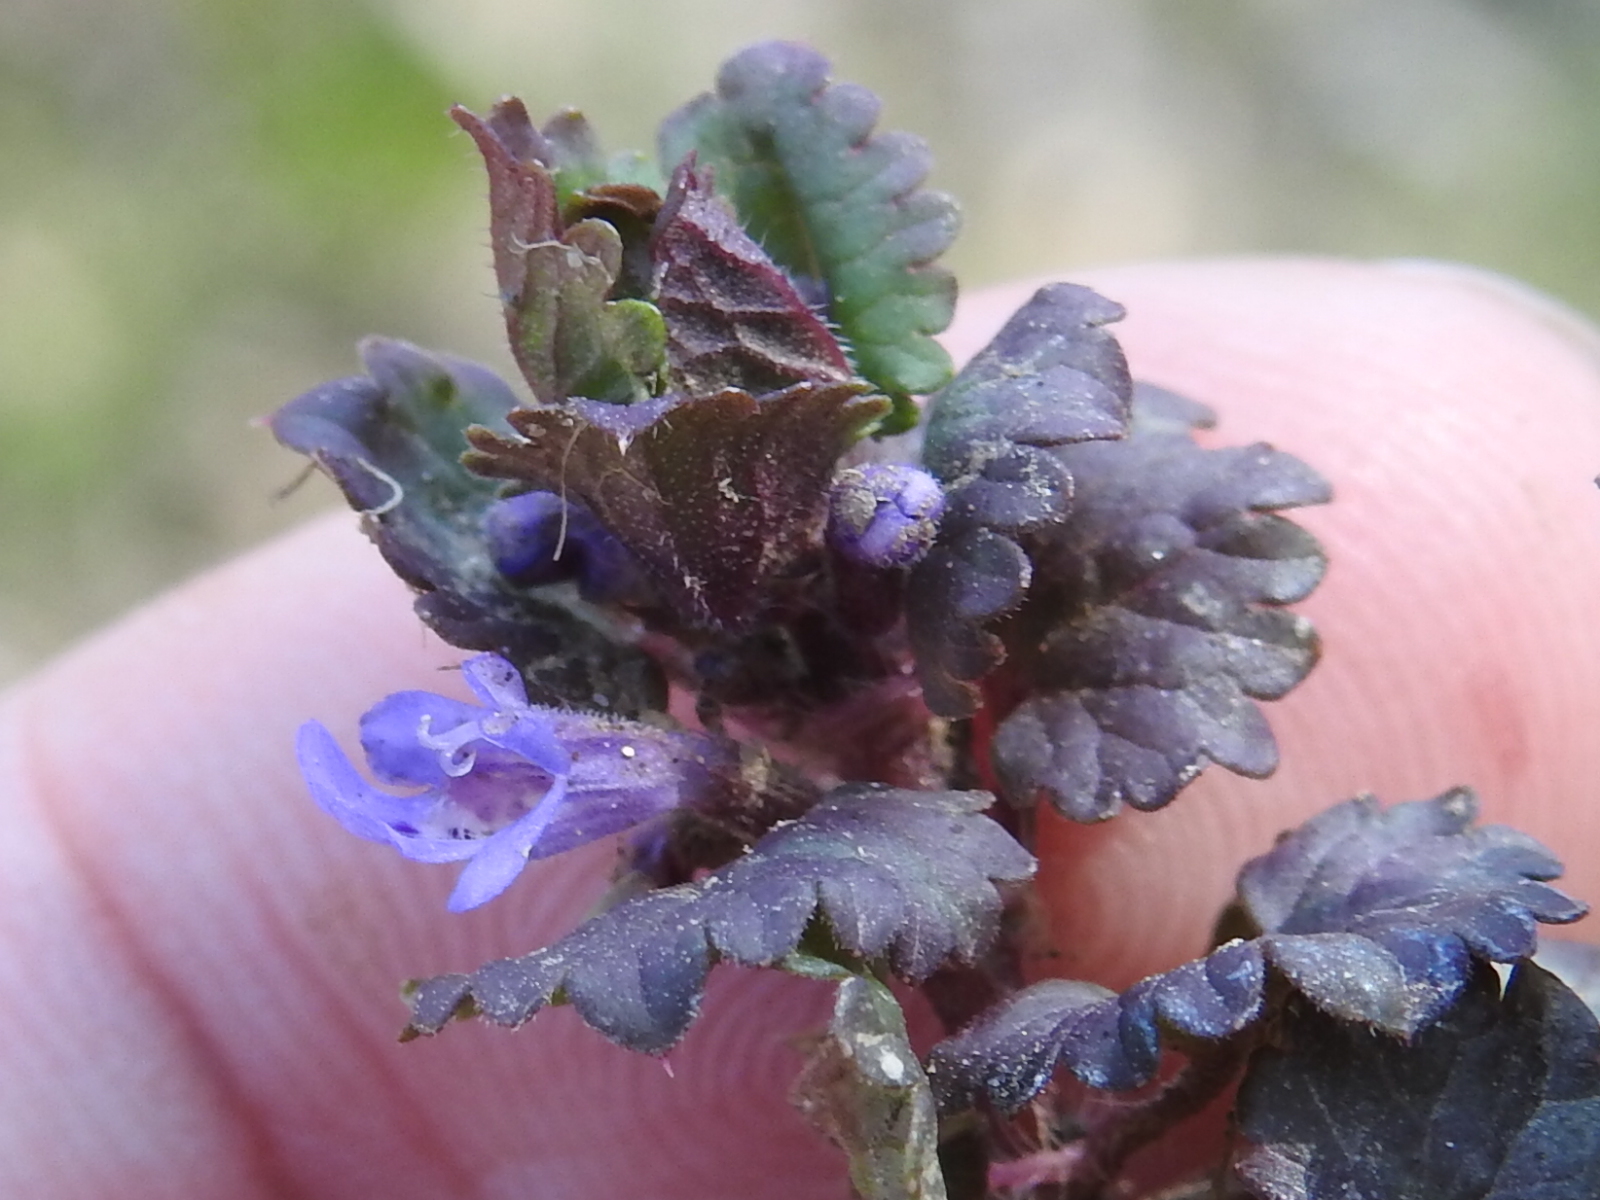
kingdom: Plantae
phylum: Tracheophyta
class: Magnoliopsida
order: Lamiales
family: Lamiaceae
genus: Glechoma
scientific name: Glechoma hederacea
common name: Ground ivy
